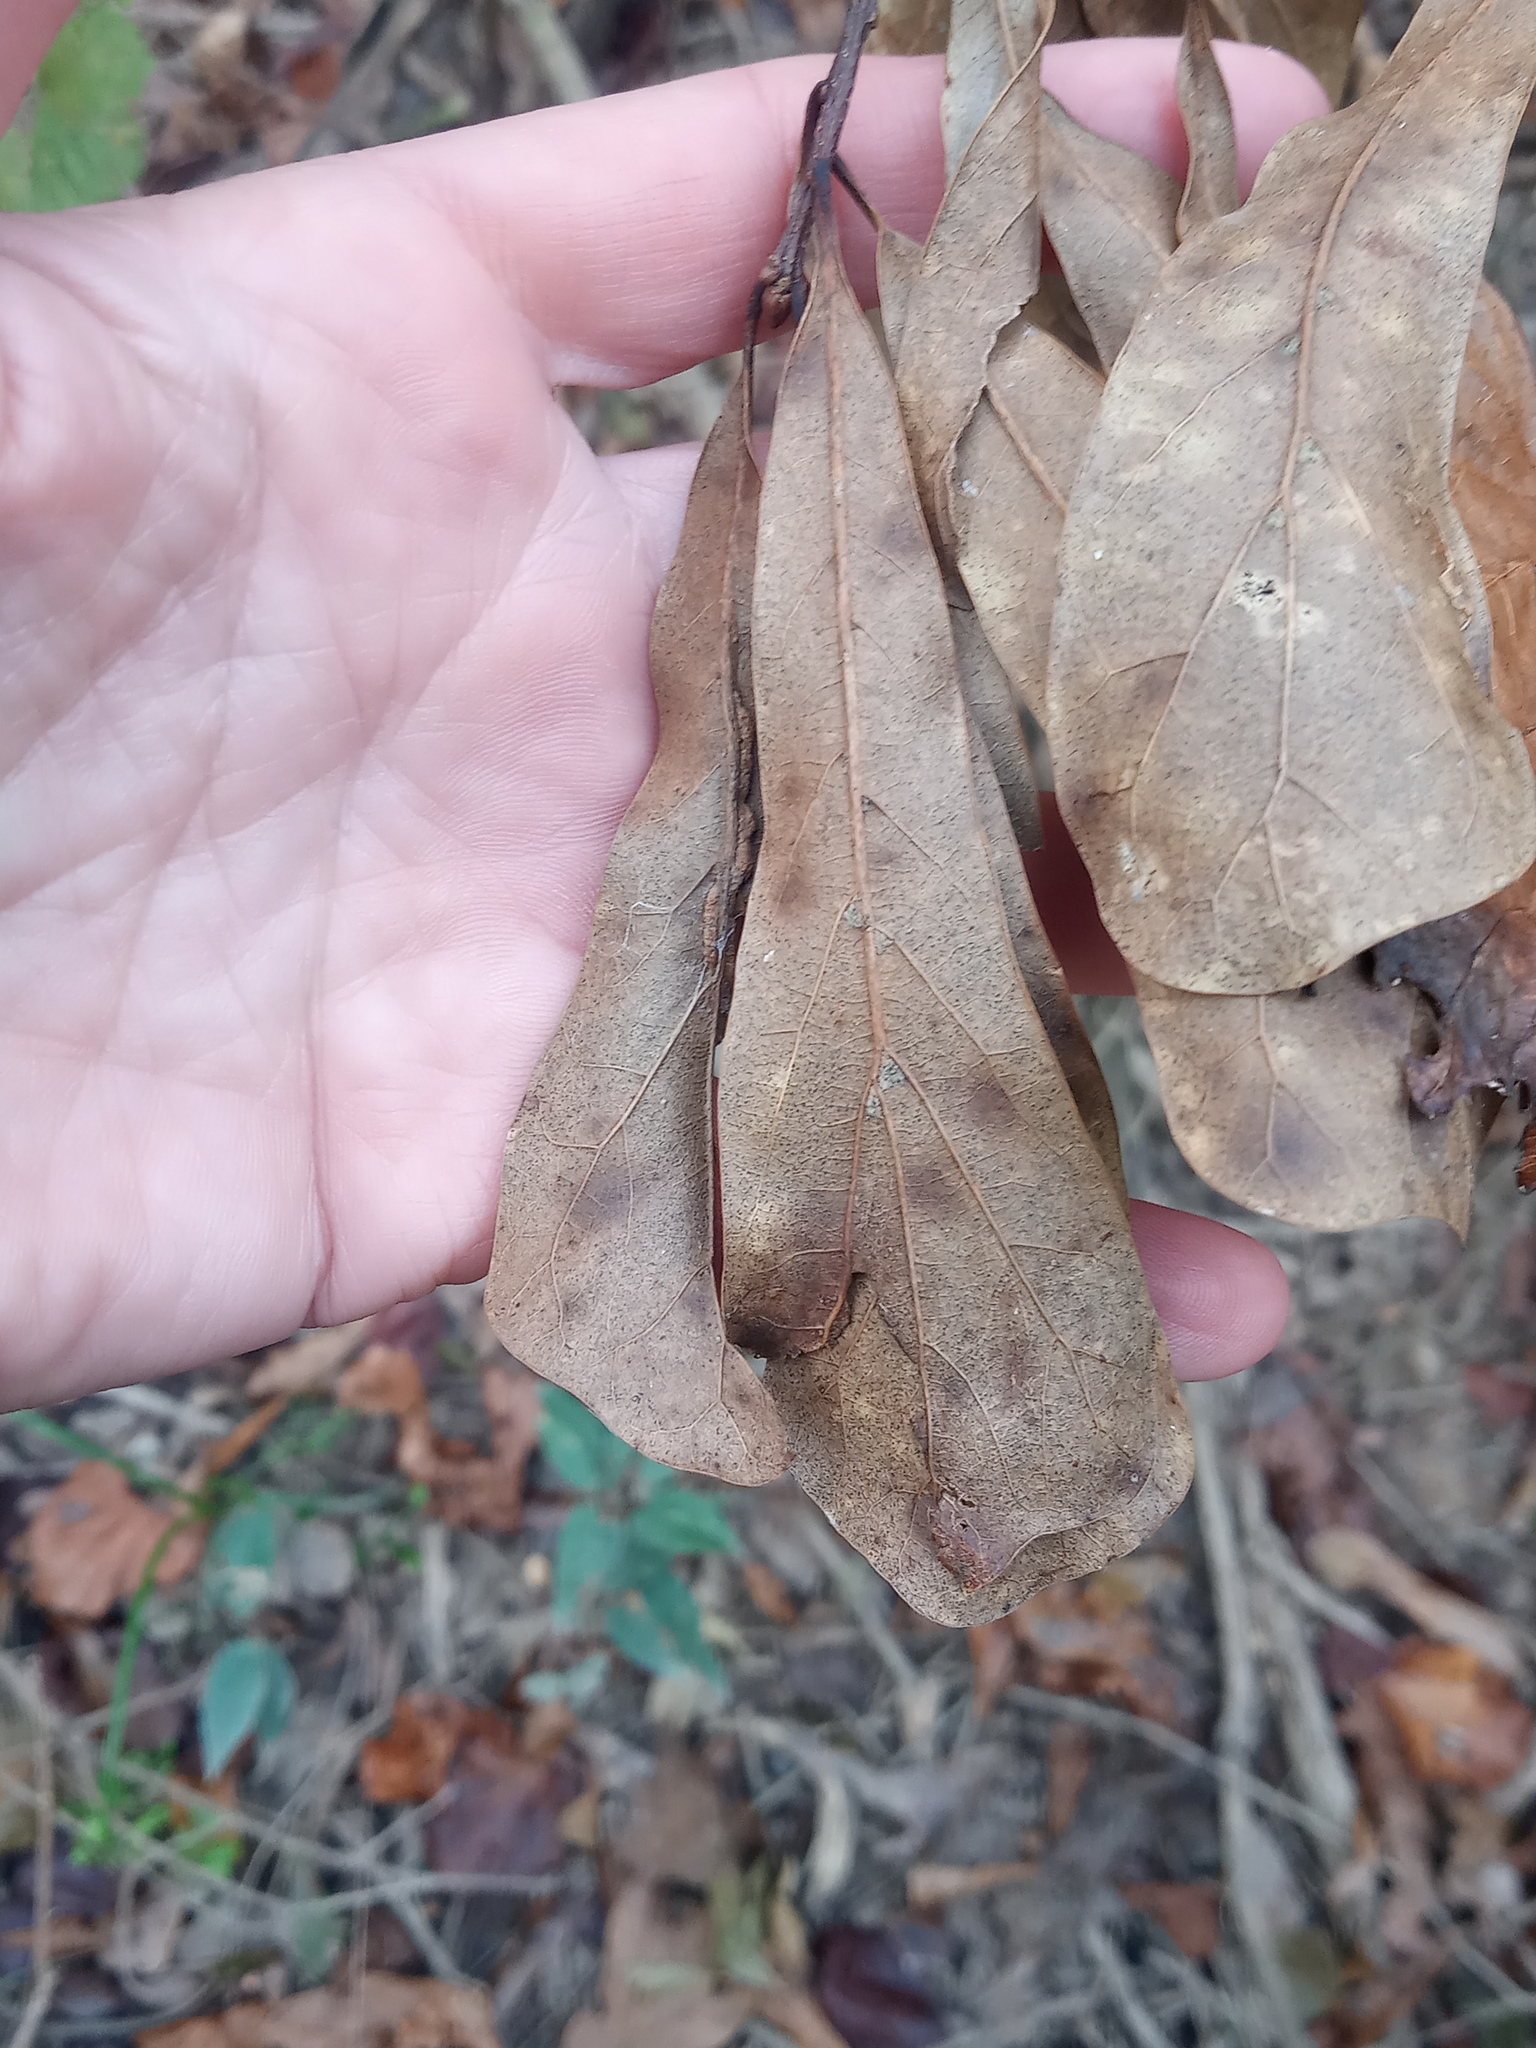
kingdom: Plantae
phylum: Tracheophyta
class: Magnoliopsida
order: Fagales
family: Fagaceae
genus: Quercus
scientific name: Quercus nigra
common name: Water oak
